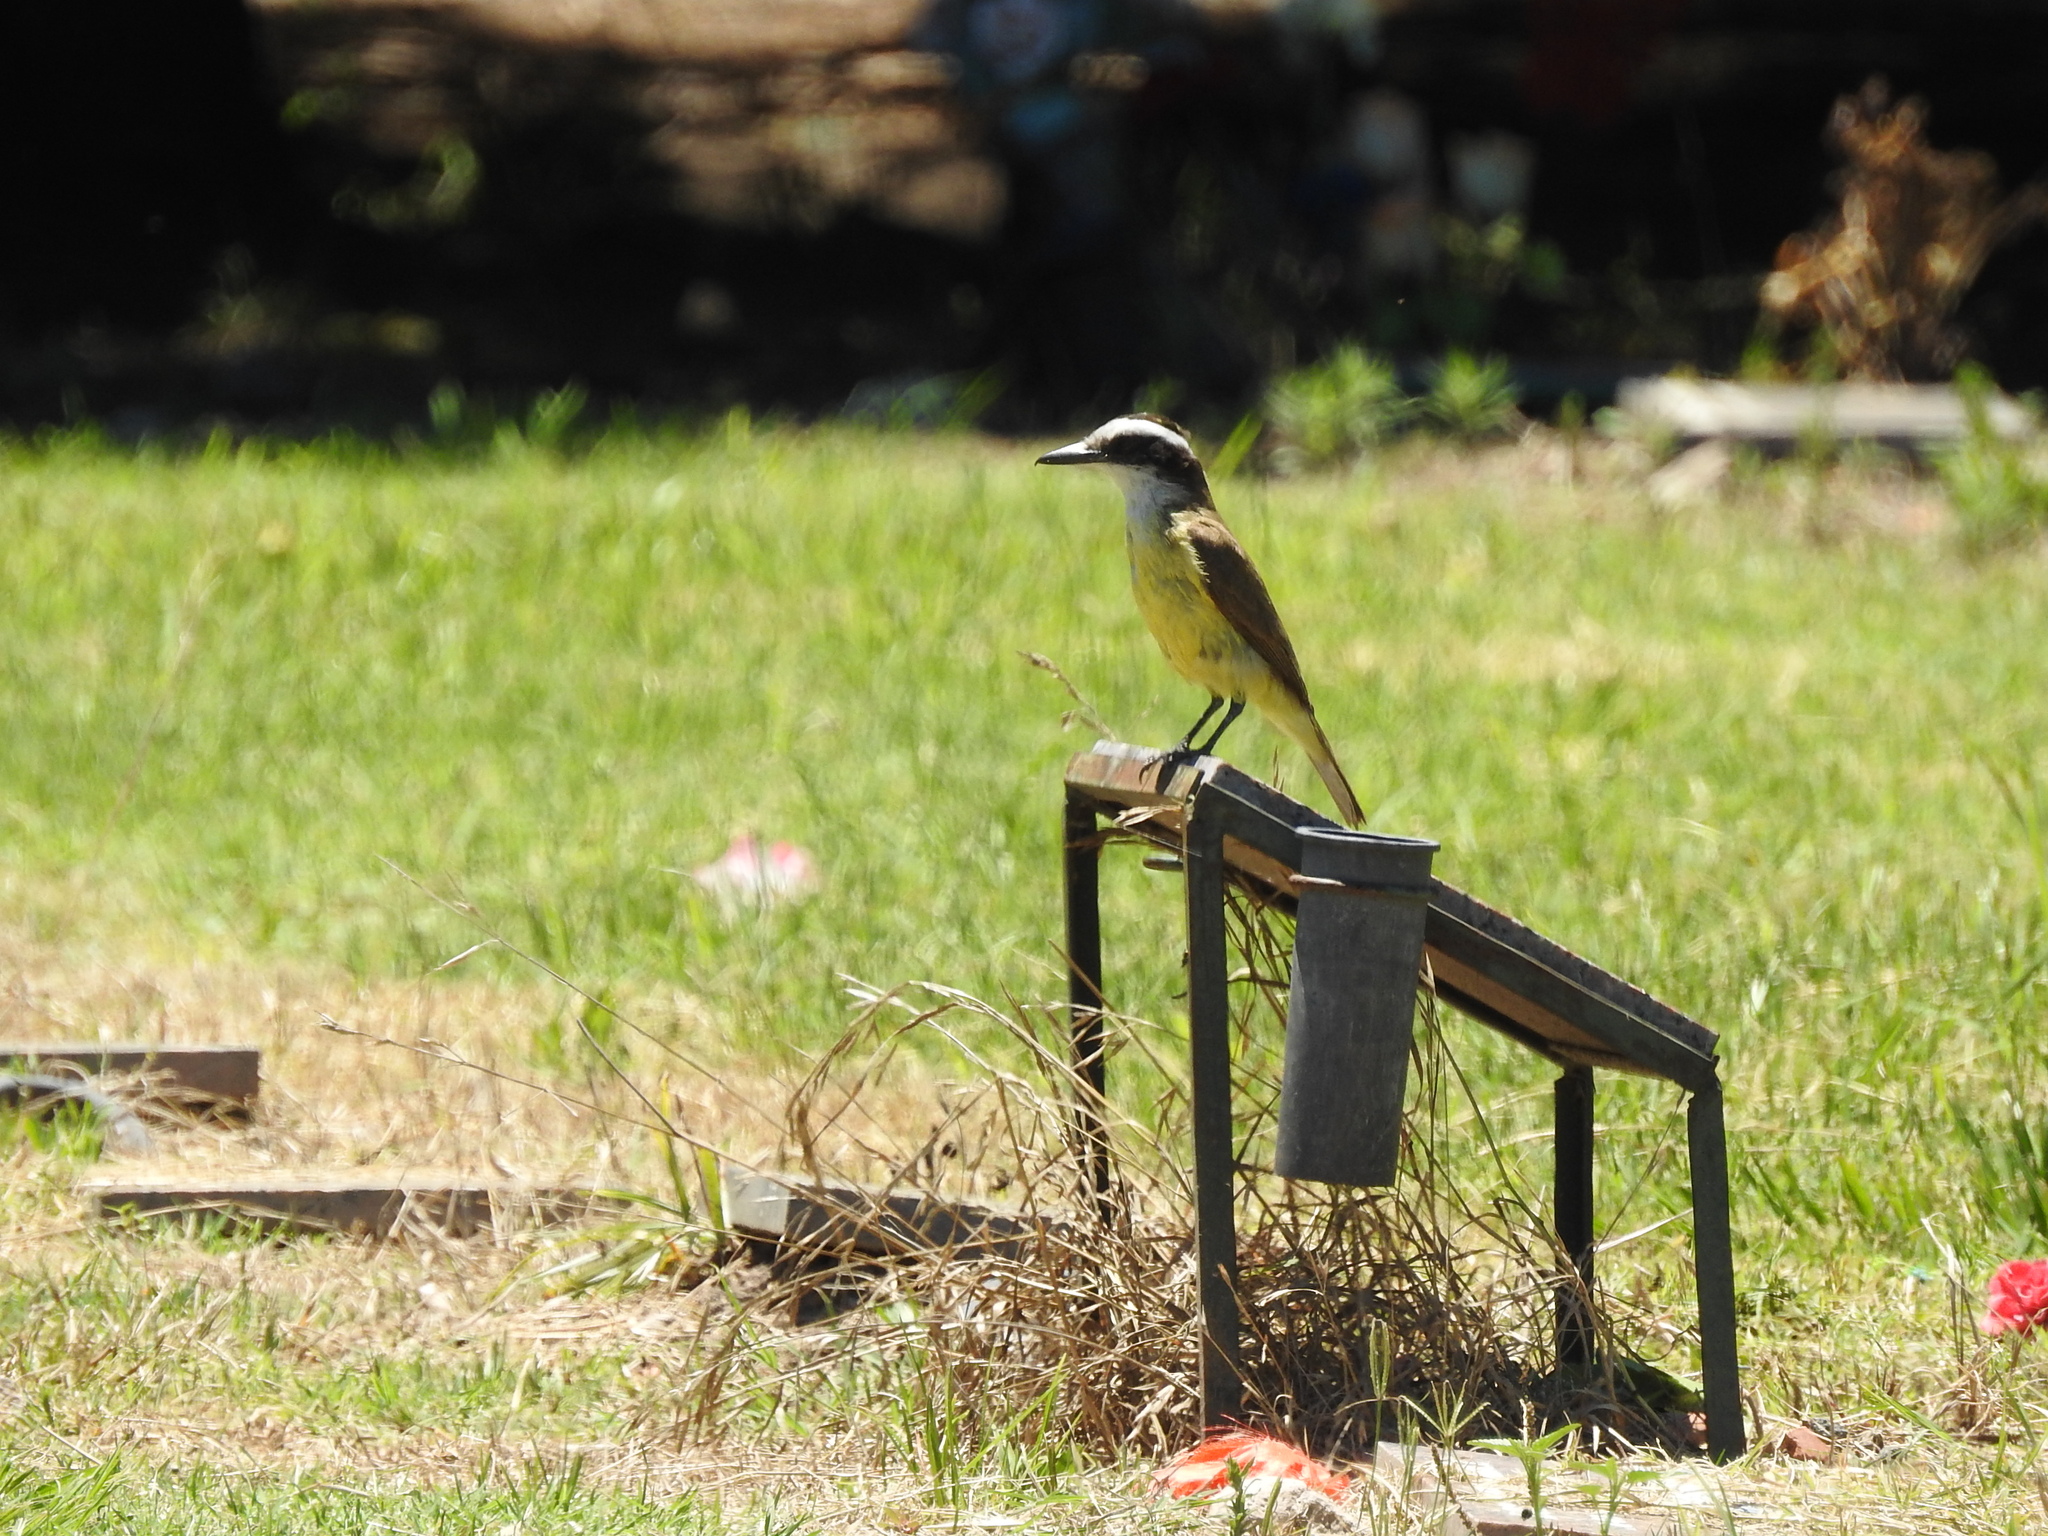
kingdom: Animalia
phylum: Chordata
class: Aves
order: Passeriformes
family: Tyrannidae
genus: Pitangus
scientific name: Pitangus sulphuratus
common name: Great kiskadee
